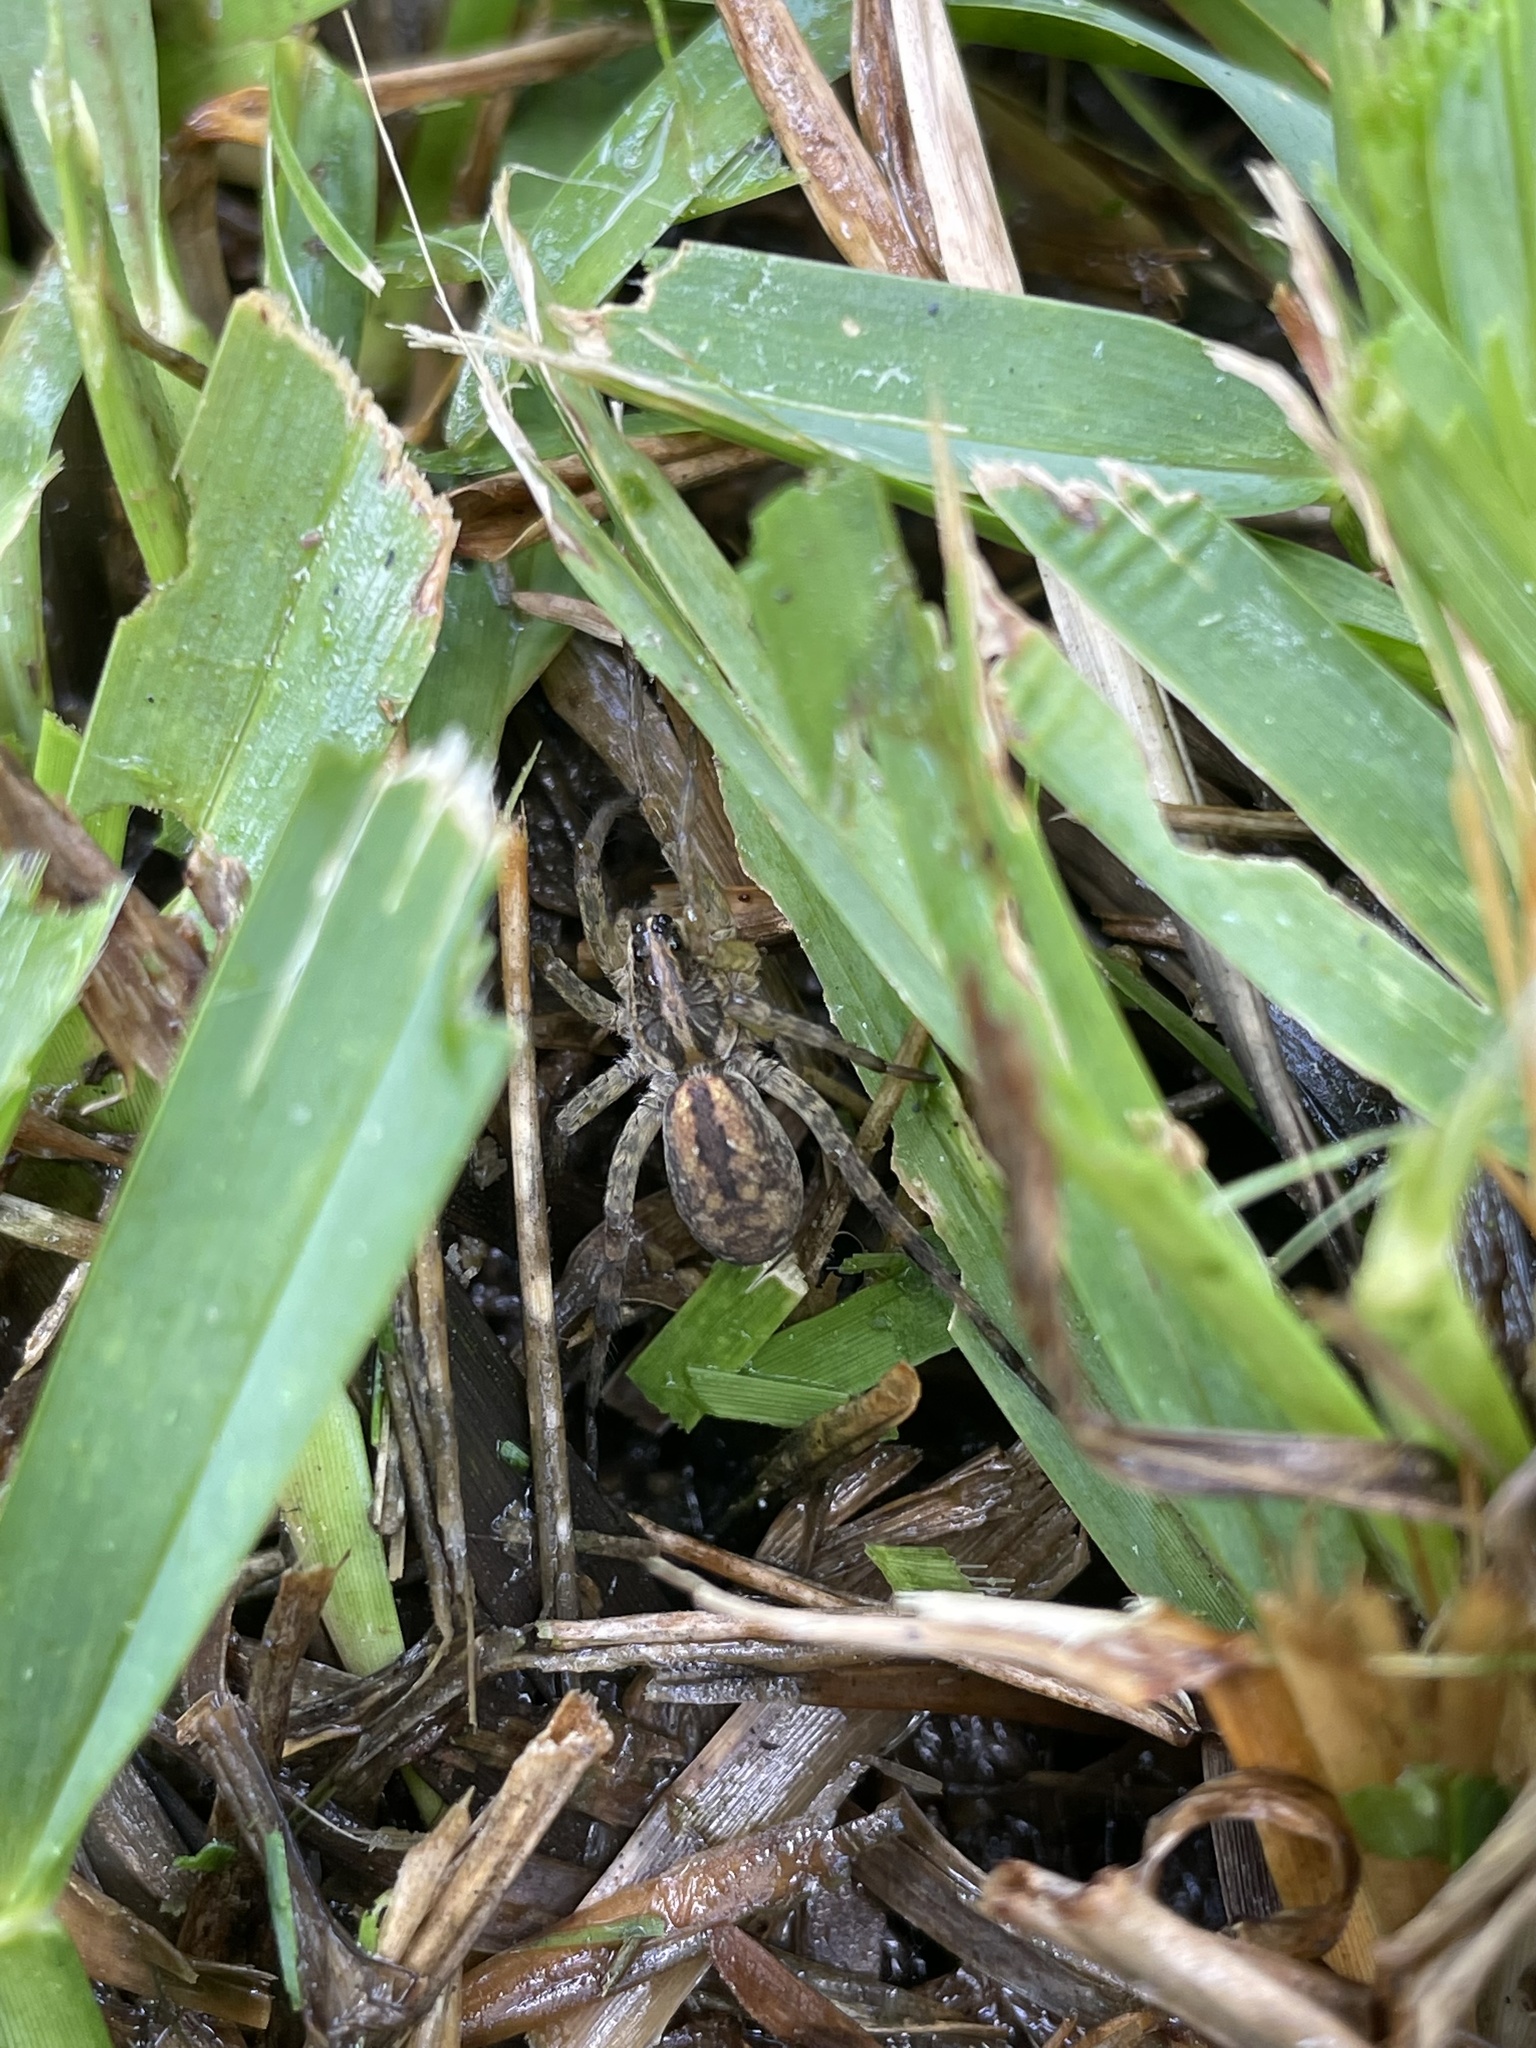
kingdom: Animalia
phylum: Arthropoda
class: Arachnida
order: Araneae
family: Lycosidae
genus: Hogna
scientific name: Hogna antelucana
